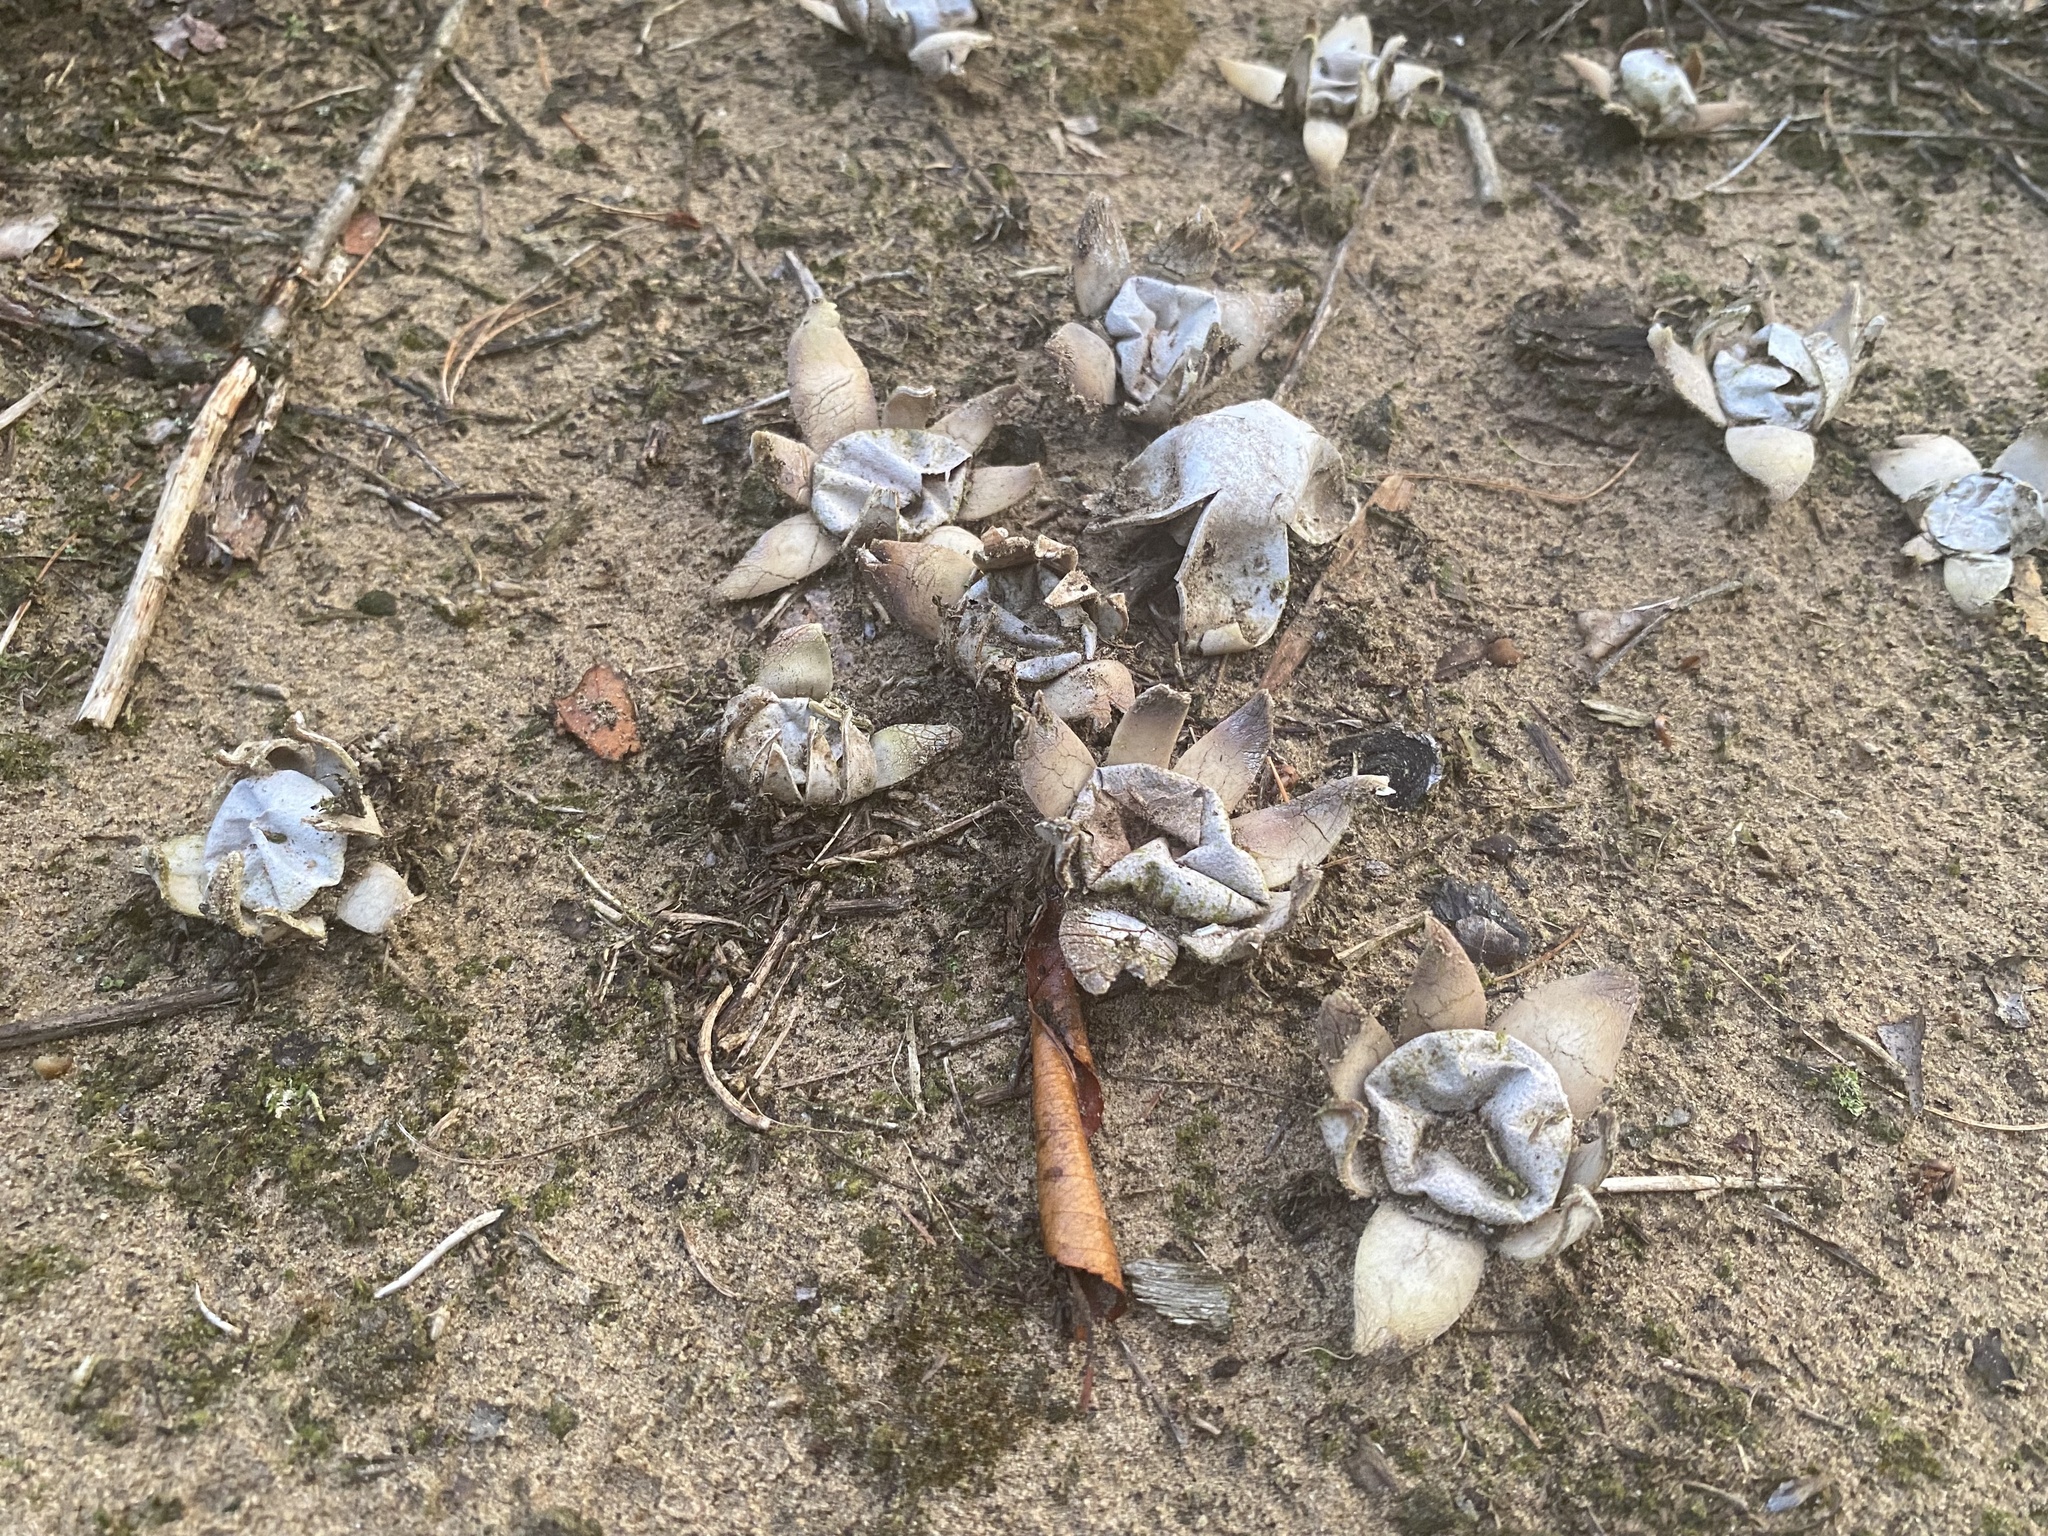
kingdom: Fungi
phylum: Basidiomycota
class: Agaricomycetes
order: Boletales
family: Diplocystidiaceae
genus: Astraeus
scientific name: Astraeus smithii
